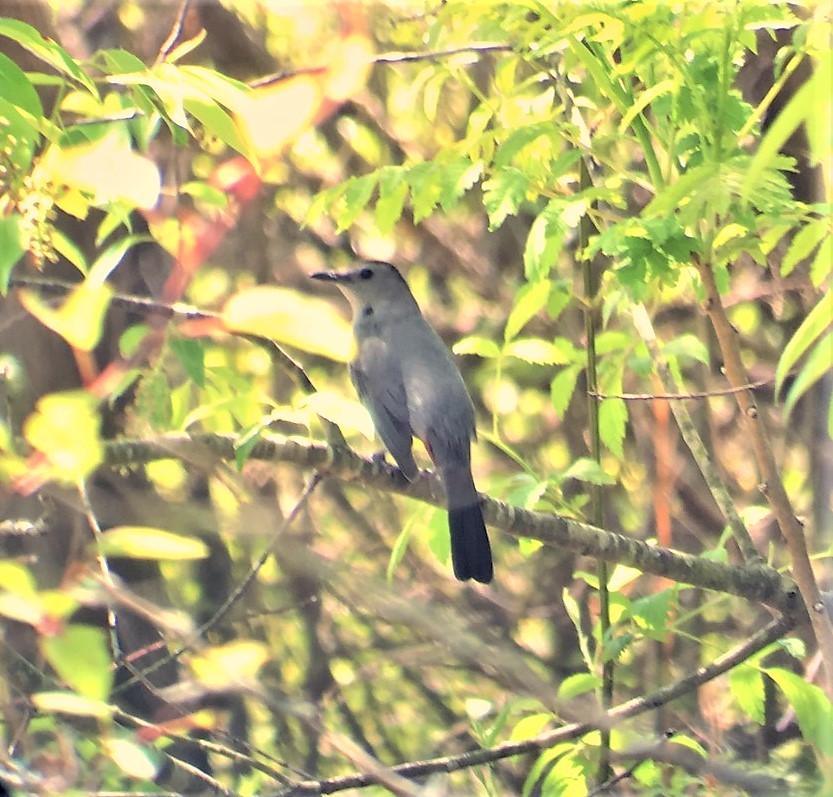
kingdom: Animalia
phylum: Chordata
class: Aves
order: Passeriformes
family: Mimidae
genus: Dumetella
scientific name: Dumetella carolinensis
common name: Gray catbird
